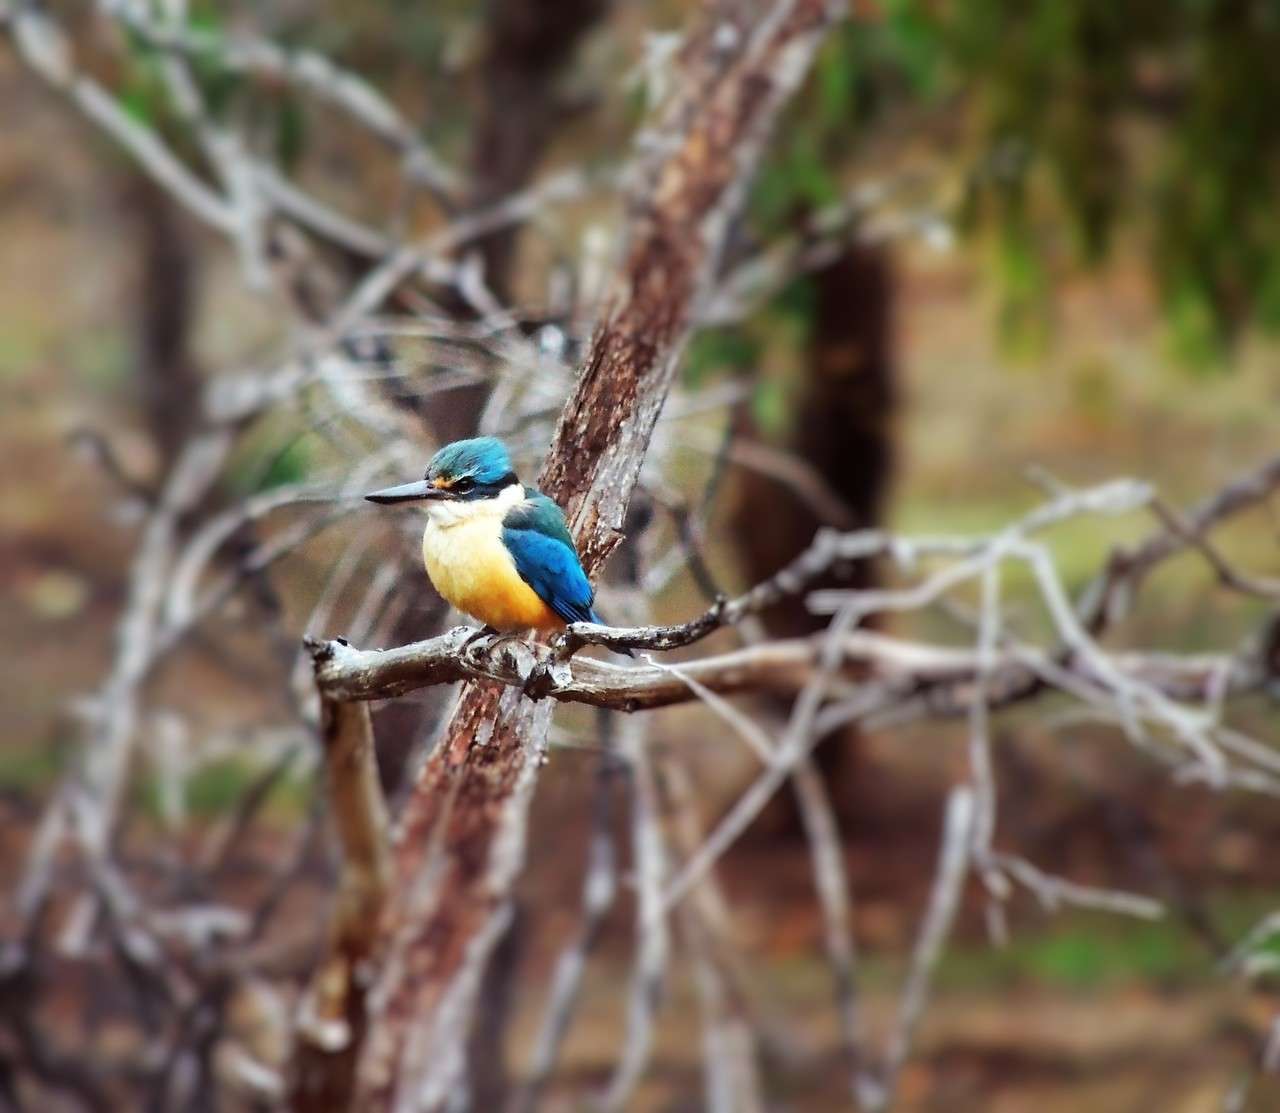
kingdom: Animalia
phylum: Chordata
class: Aves
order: Coraciiformes
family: Alcedinidae
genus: Todiramphus
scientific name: Todiramphus sanctus
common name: Sacred kingfisher
